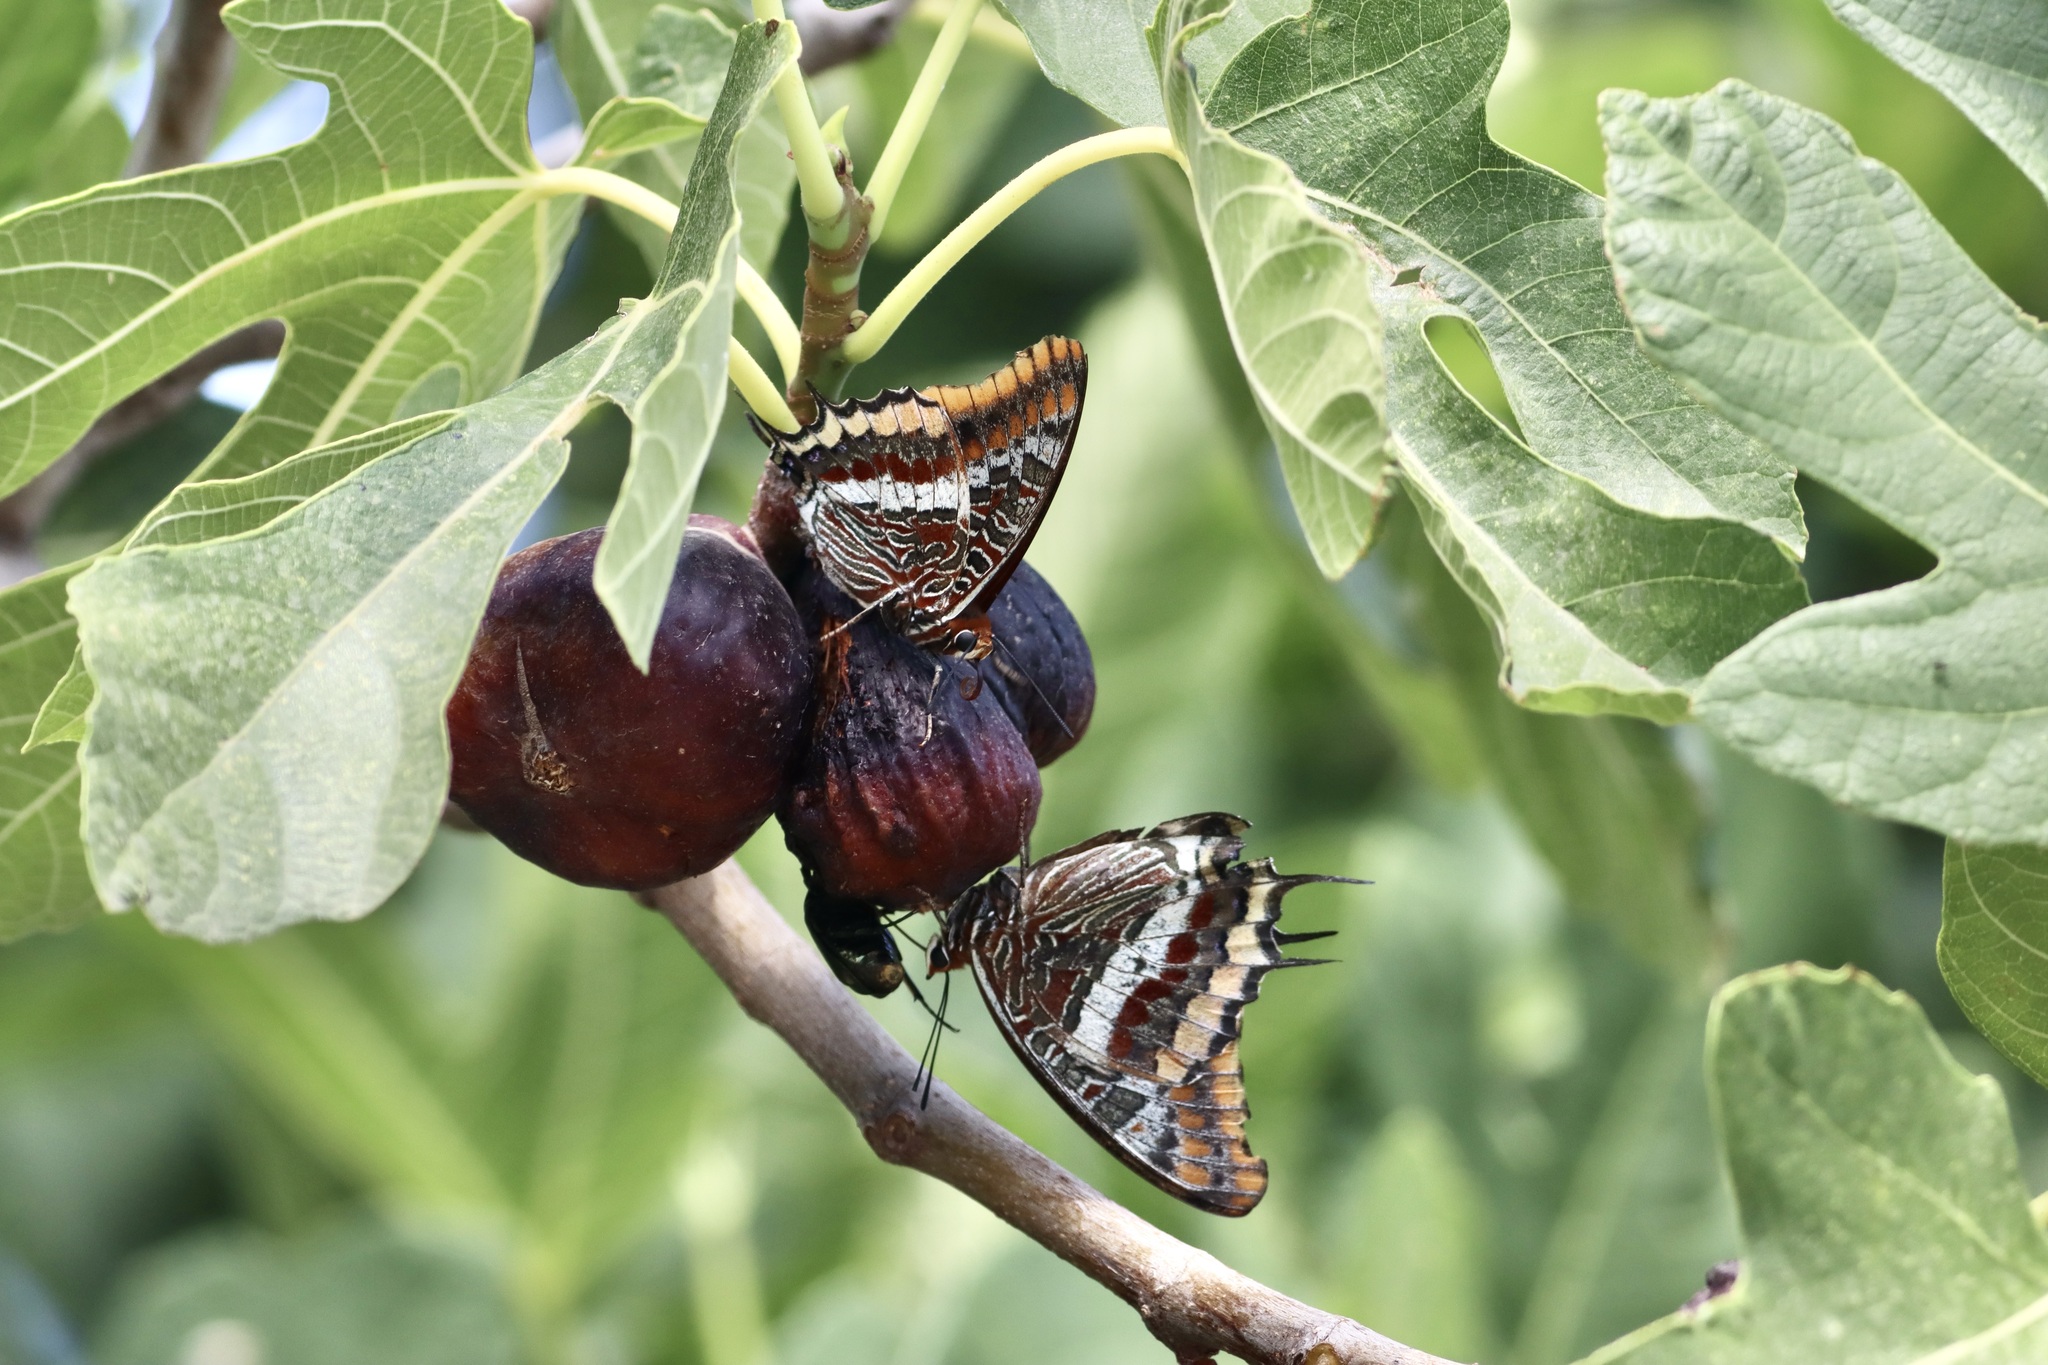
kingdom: Animalia
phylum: Arthropoda
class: Insecta
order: Lepidoptera
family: Nymphalidae
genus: Charaxes
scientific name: Charaxes jasius
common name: Two tailed pasha
